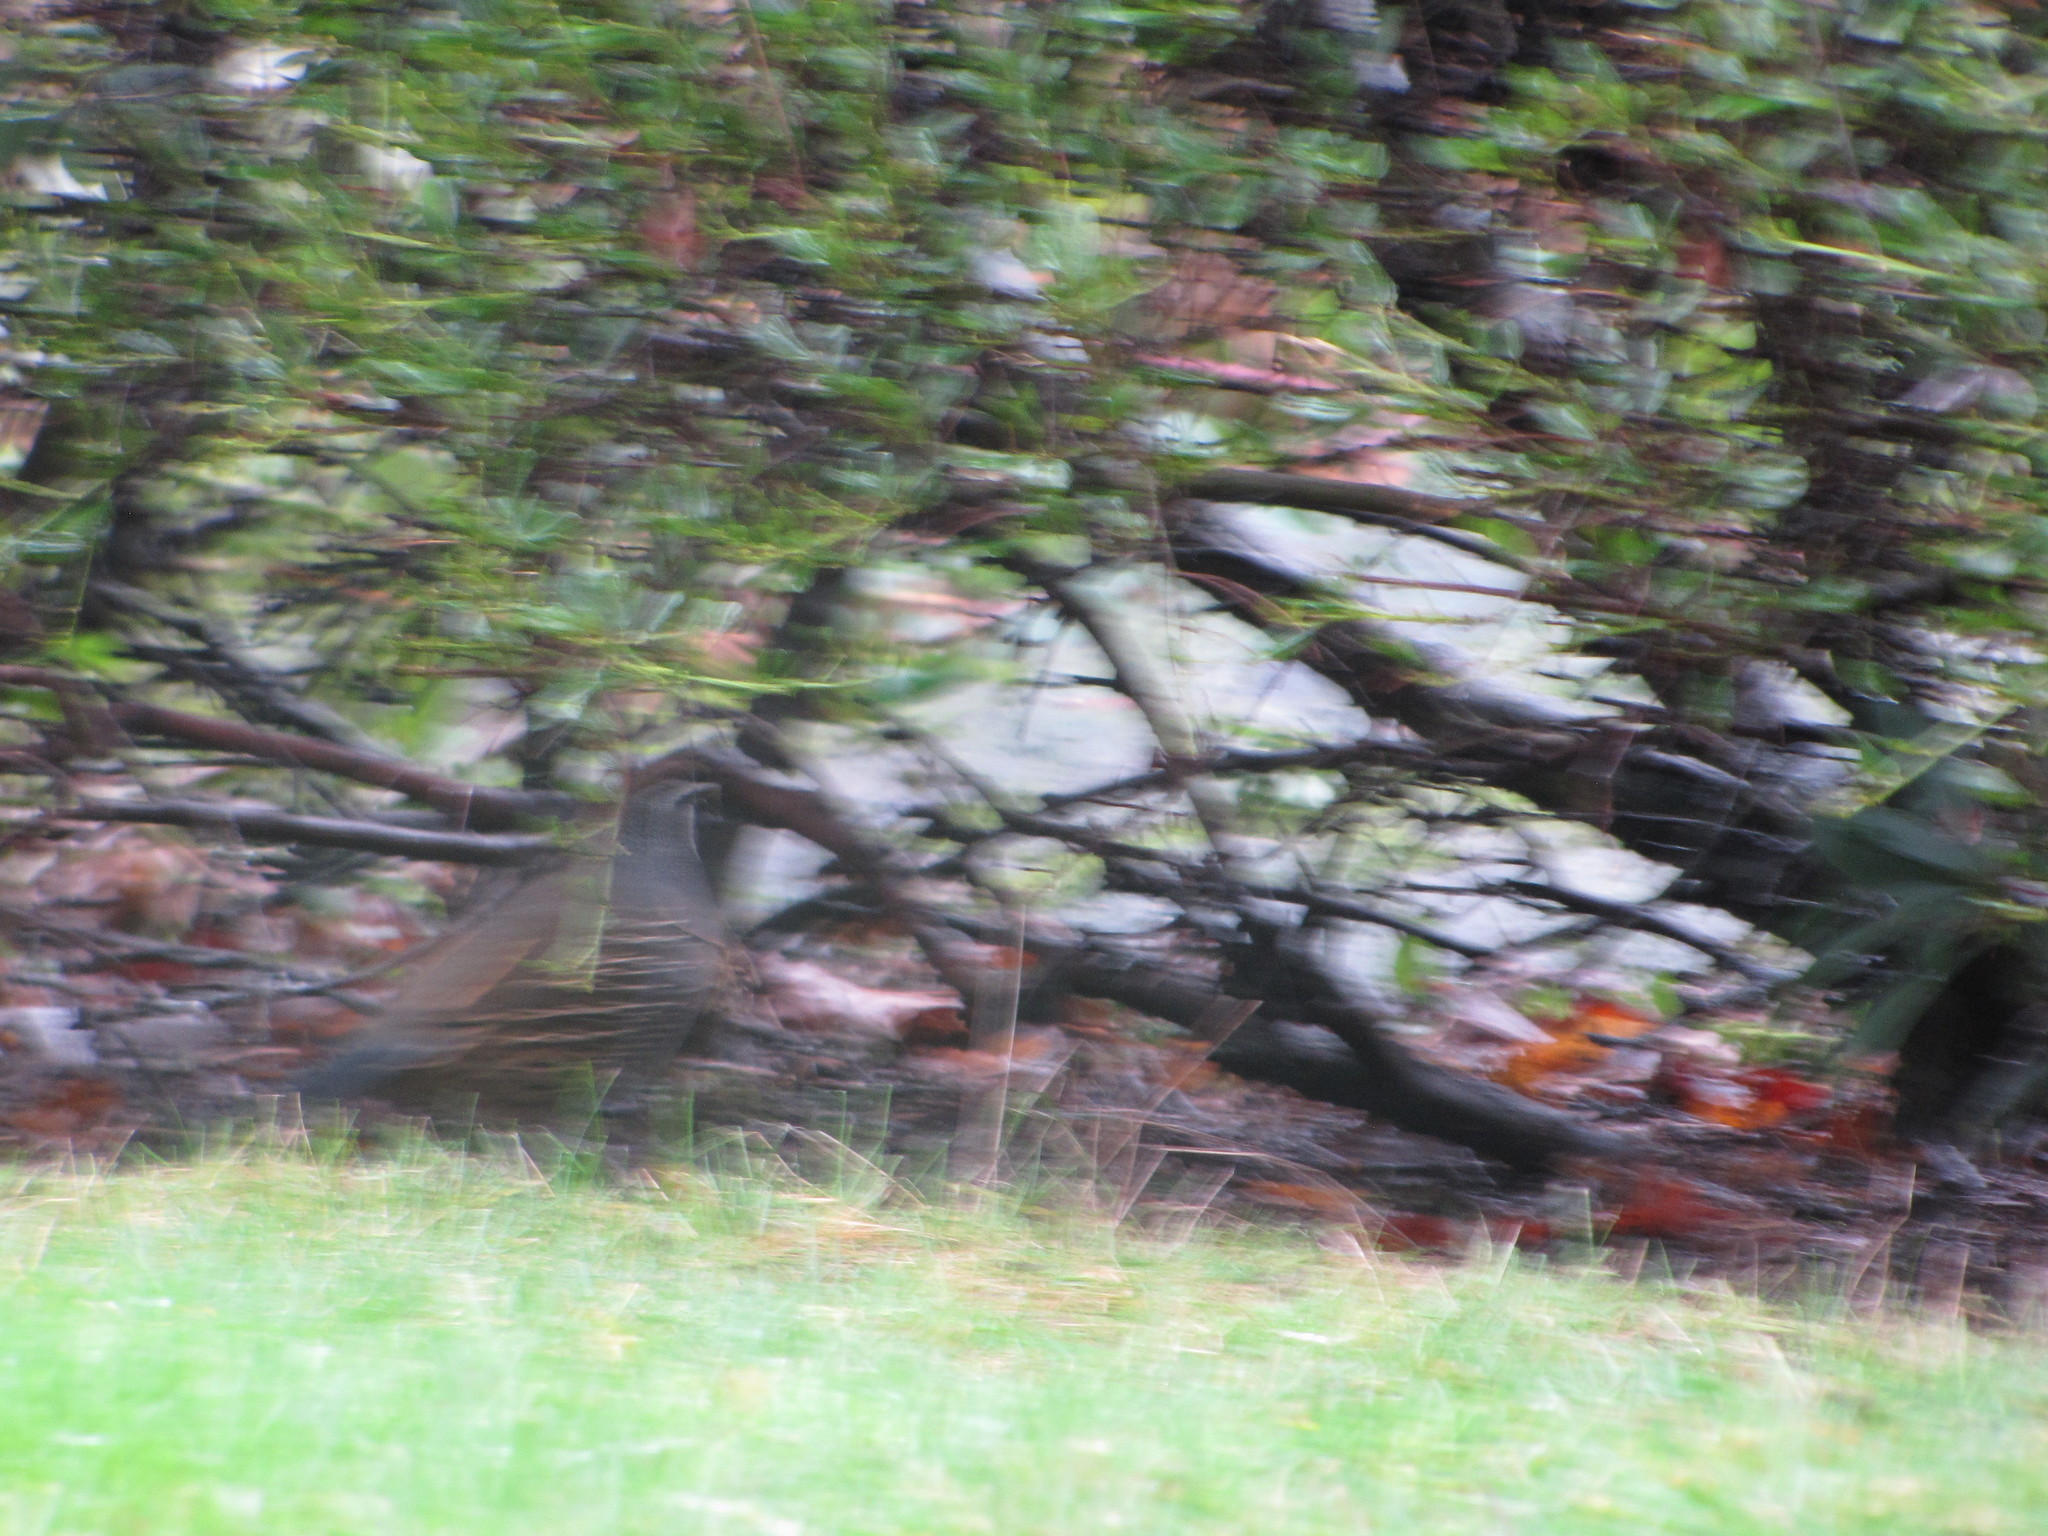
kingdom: Animalia
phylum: Chordata
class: Aves
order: Galliformes
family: Odontophoridae
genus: Callipepla
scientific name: Callipepla californica
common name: California quail
